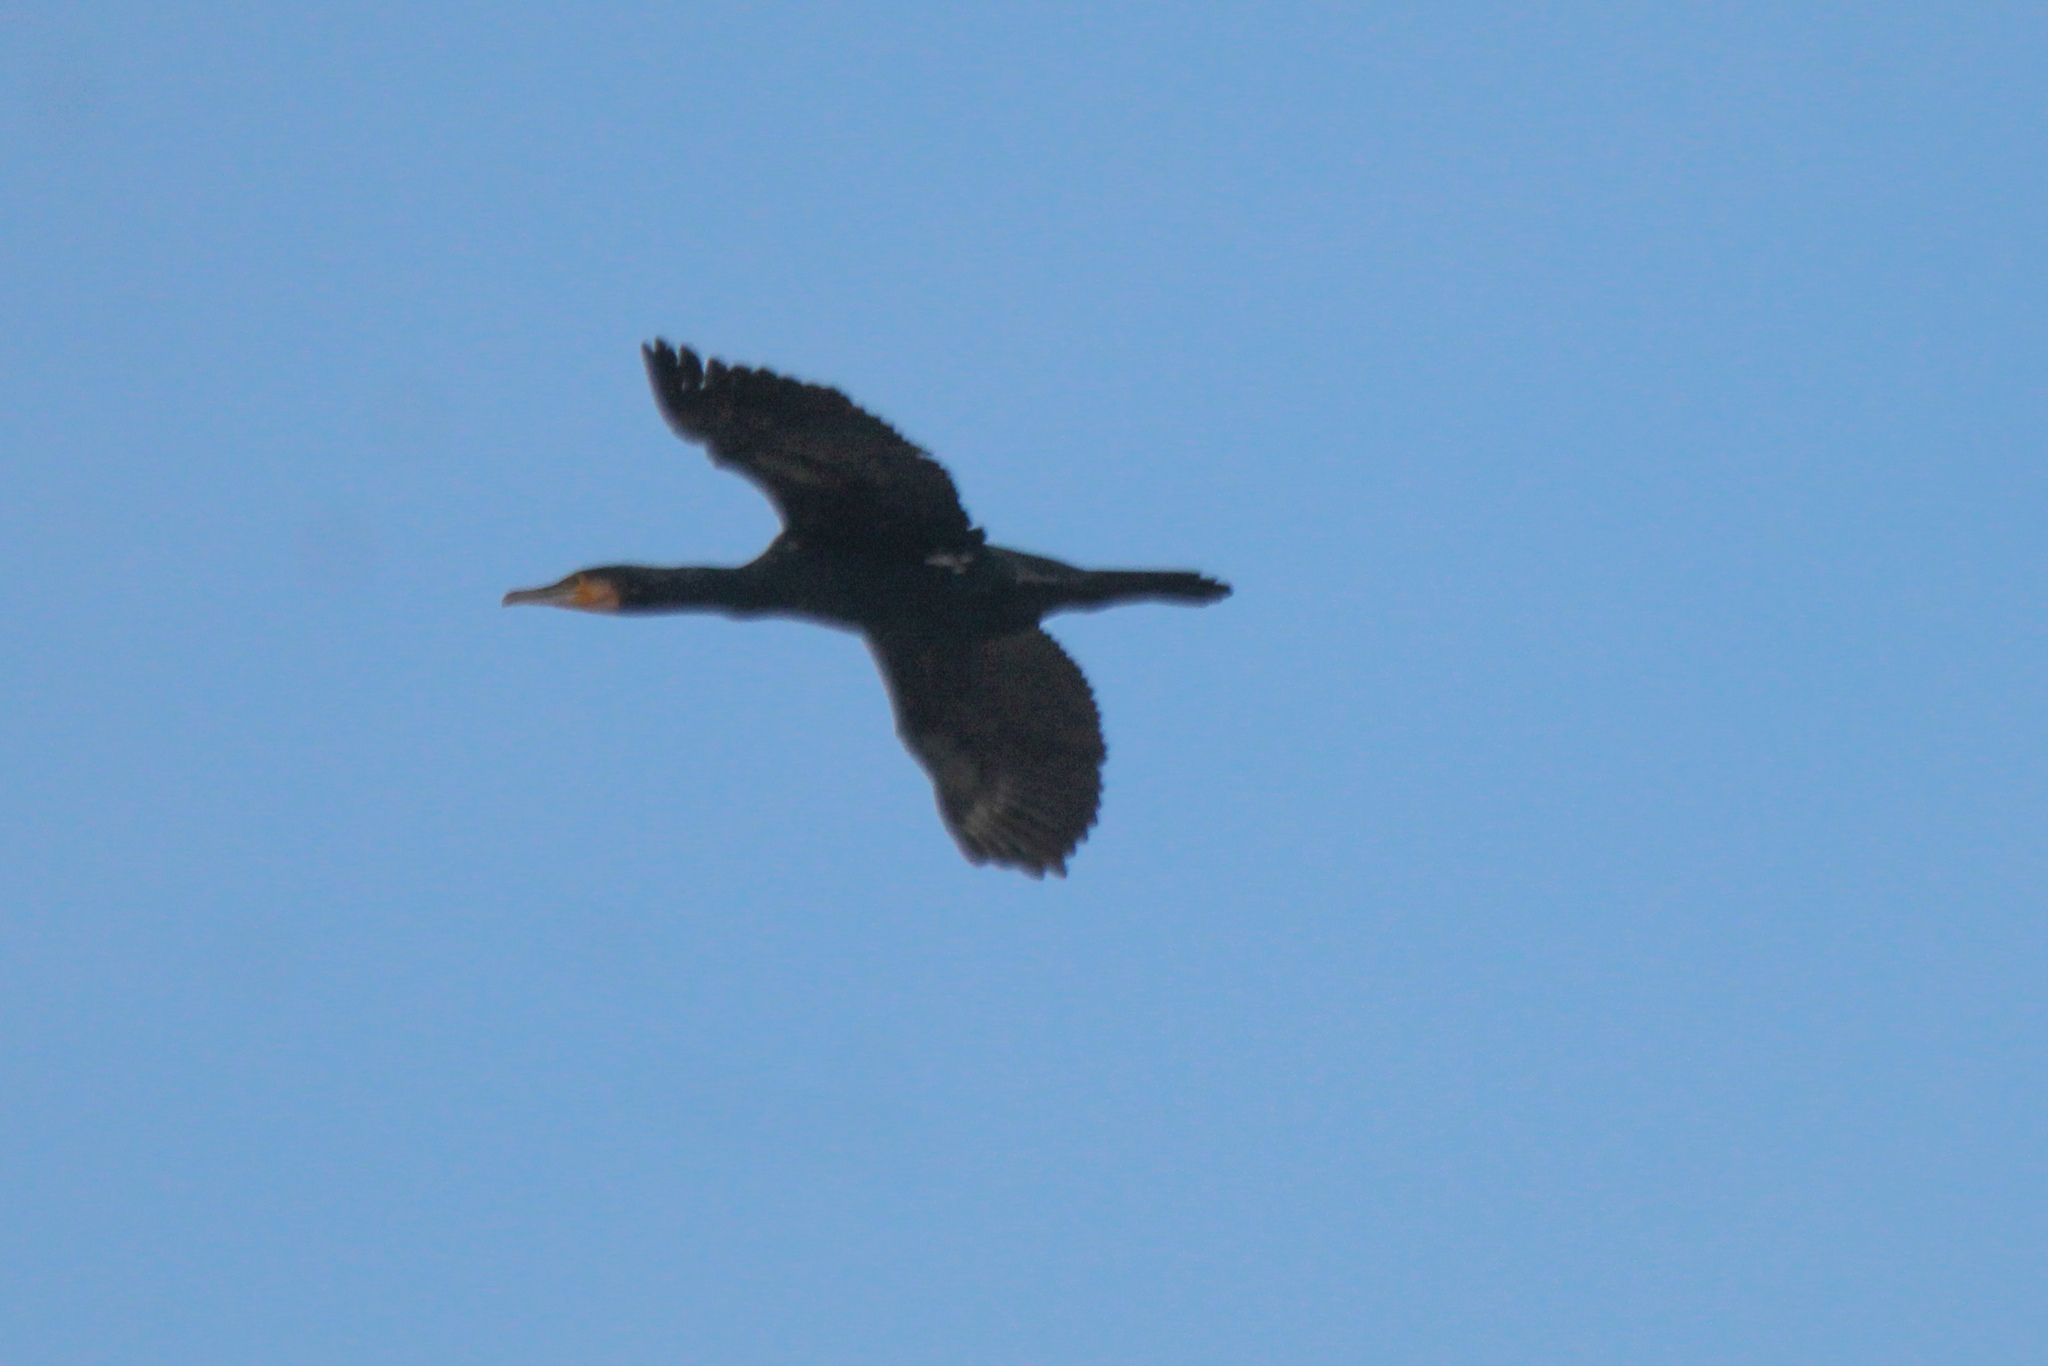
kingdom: Animalia
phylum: Chordata
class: Aves
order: Suliformes
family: Phalacrocoracidae
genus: Phalacrocorax
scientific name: Phalacrocorax carbo
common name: Great cormorant
